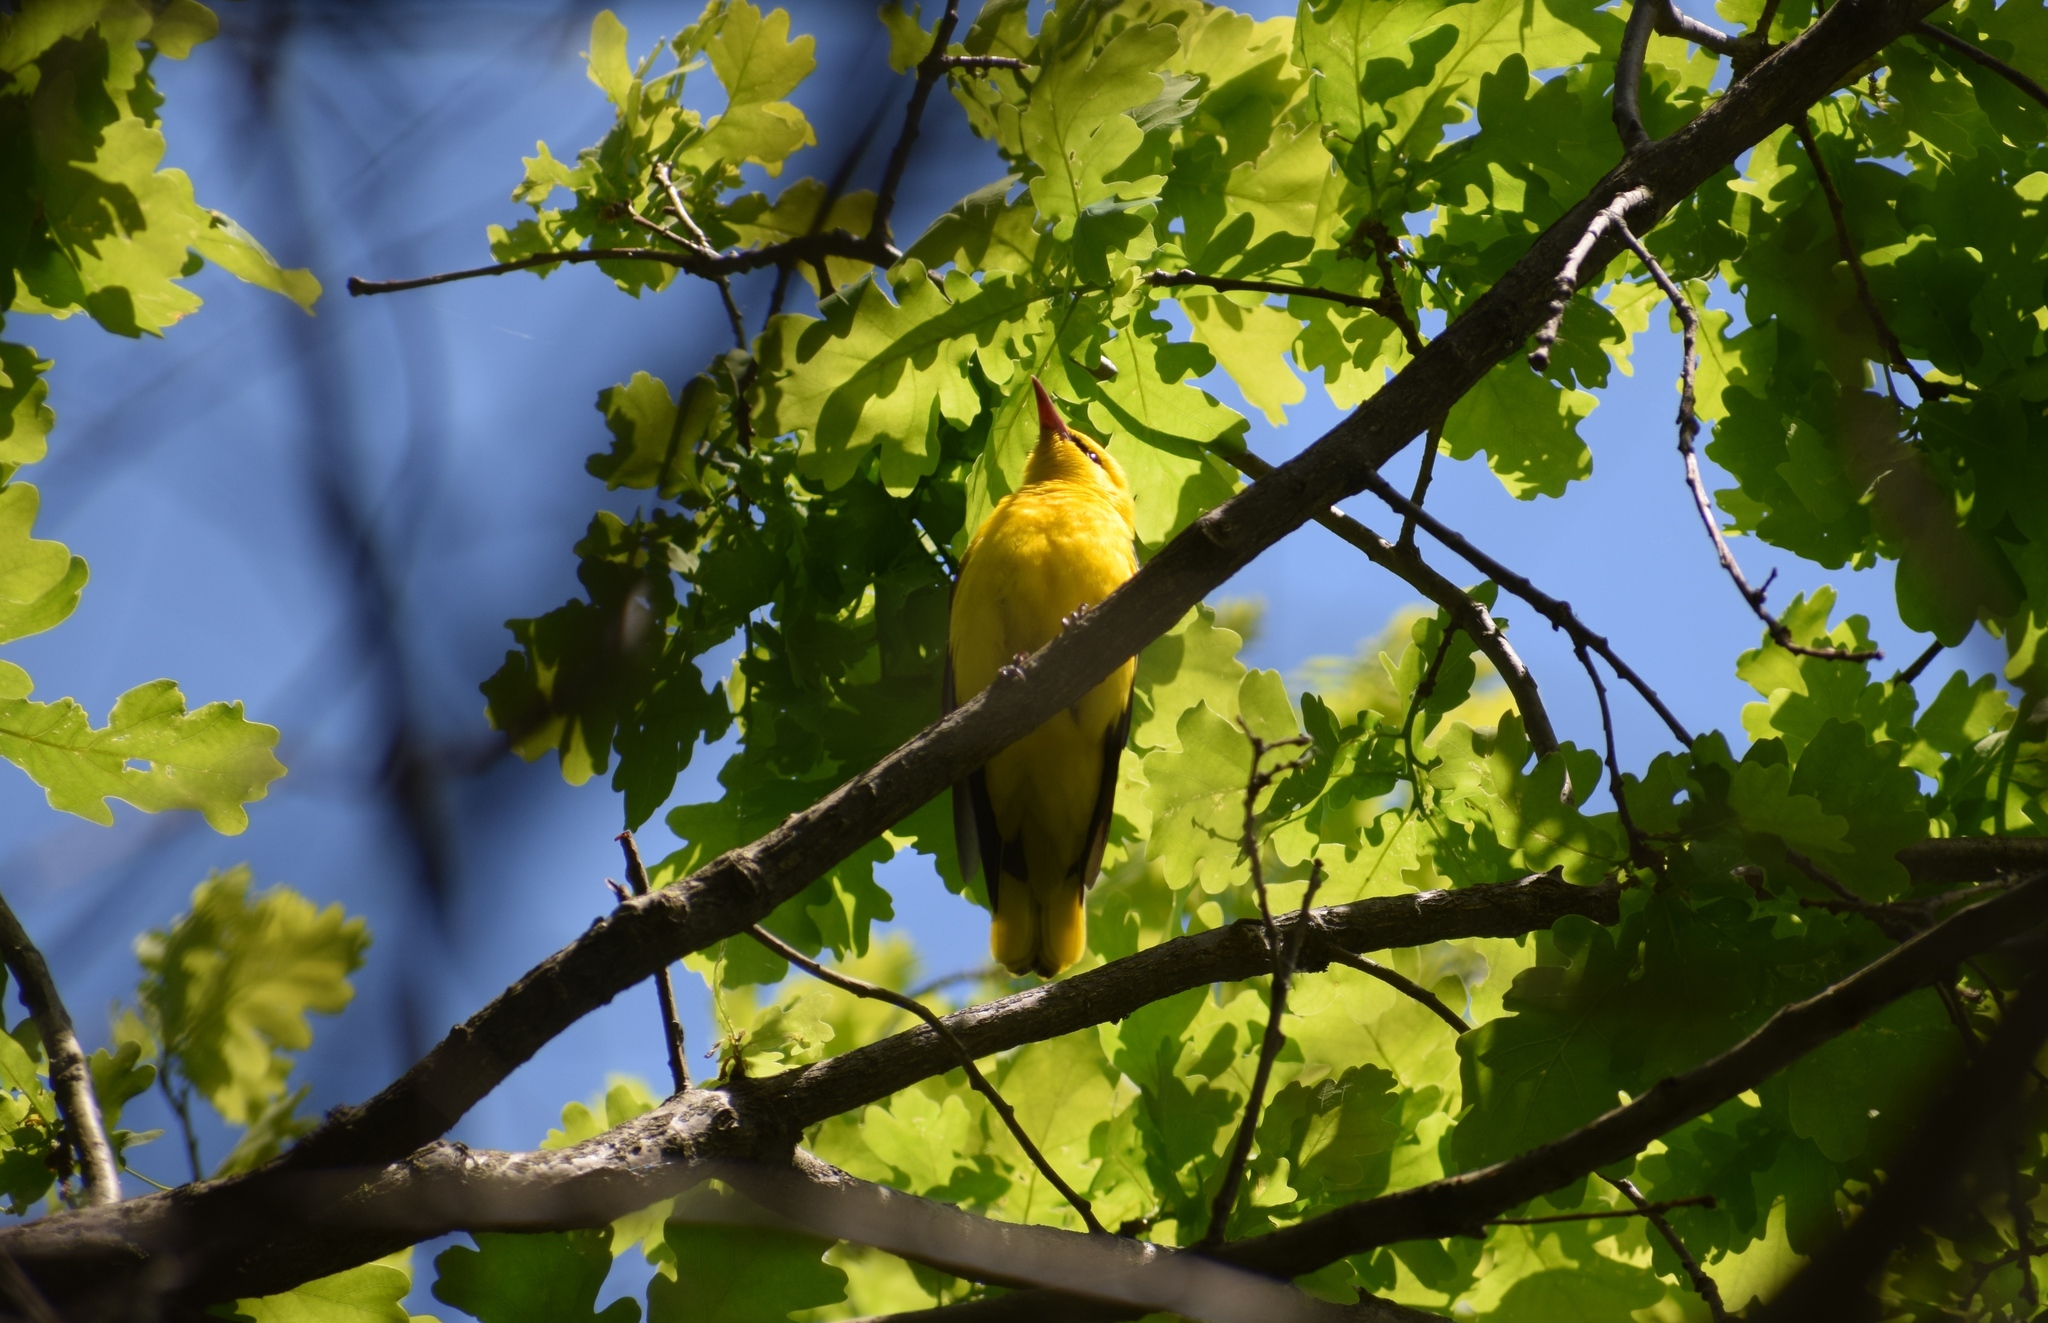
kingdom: Animalia
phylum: Chordata
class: Aves
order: Passeriformes
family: Oriolidae
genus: Oriolus
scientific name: Oriolus oriolus
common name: Eurasian golden oriole
